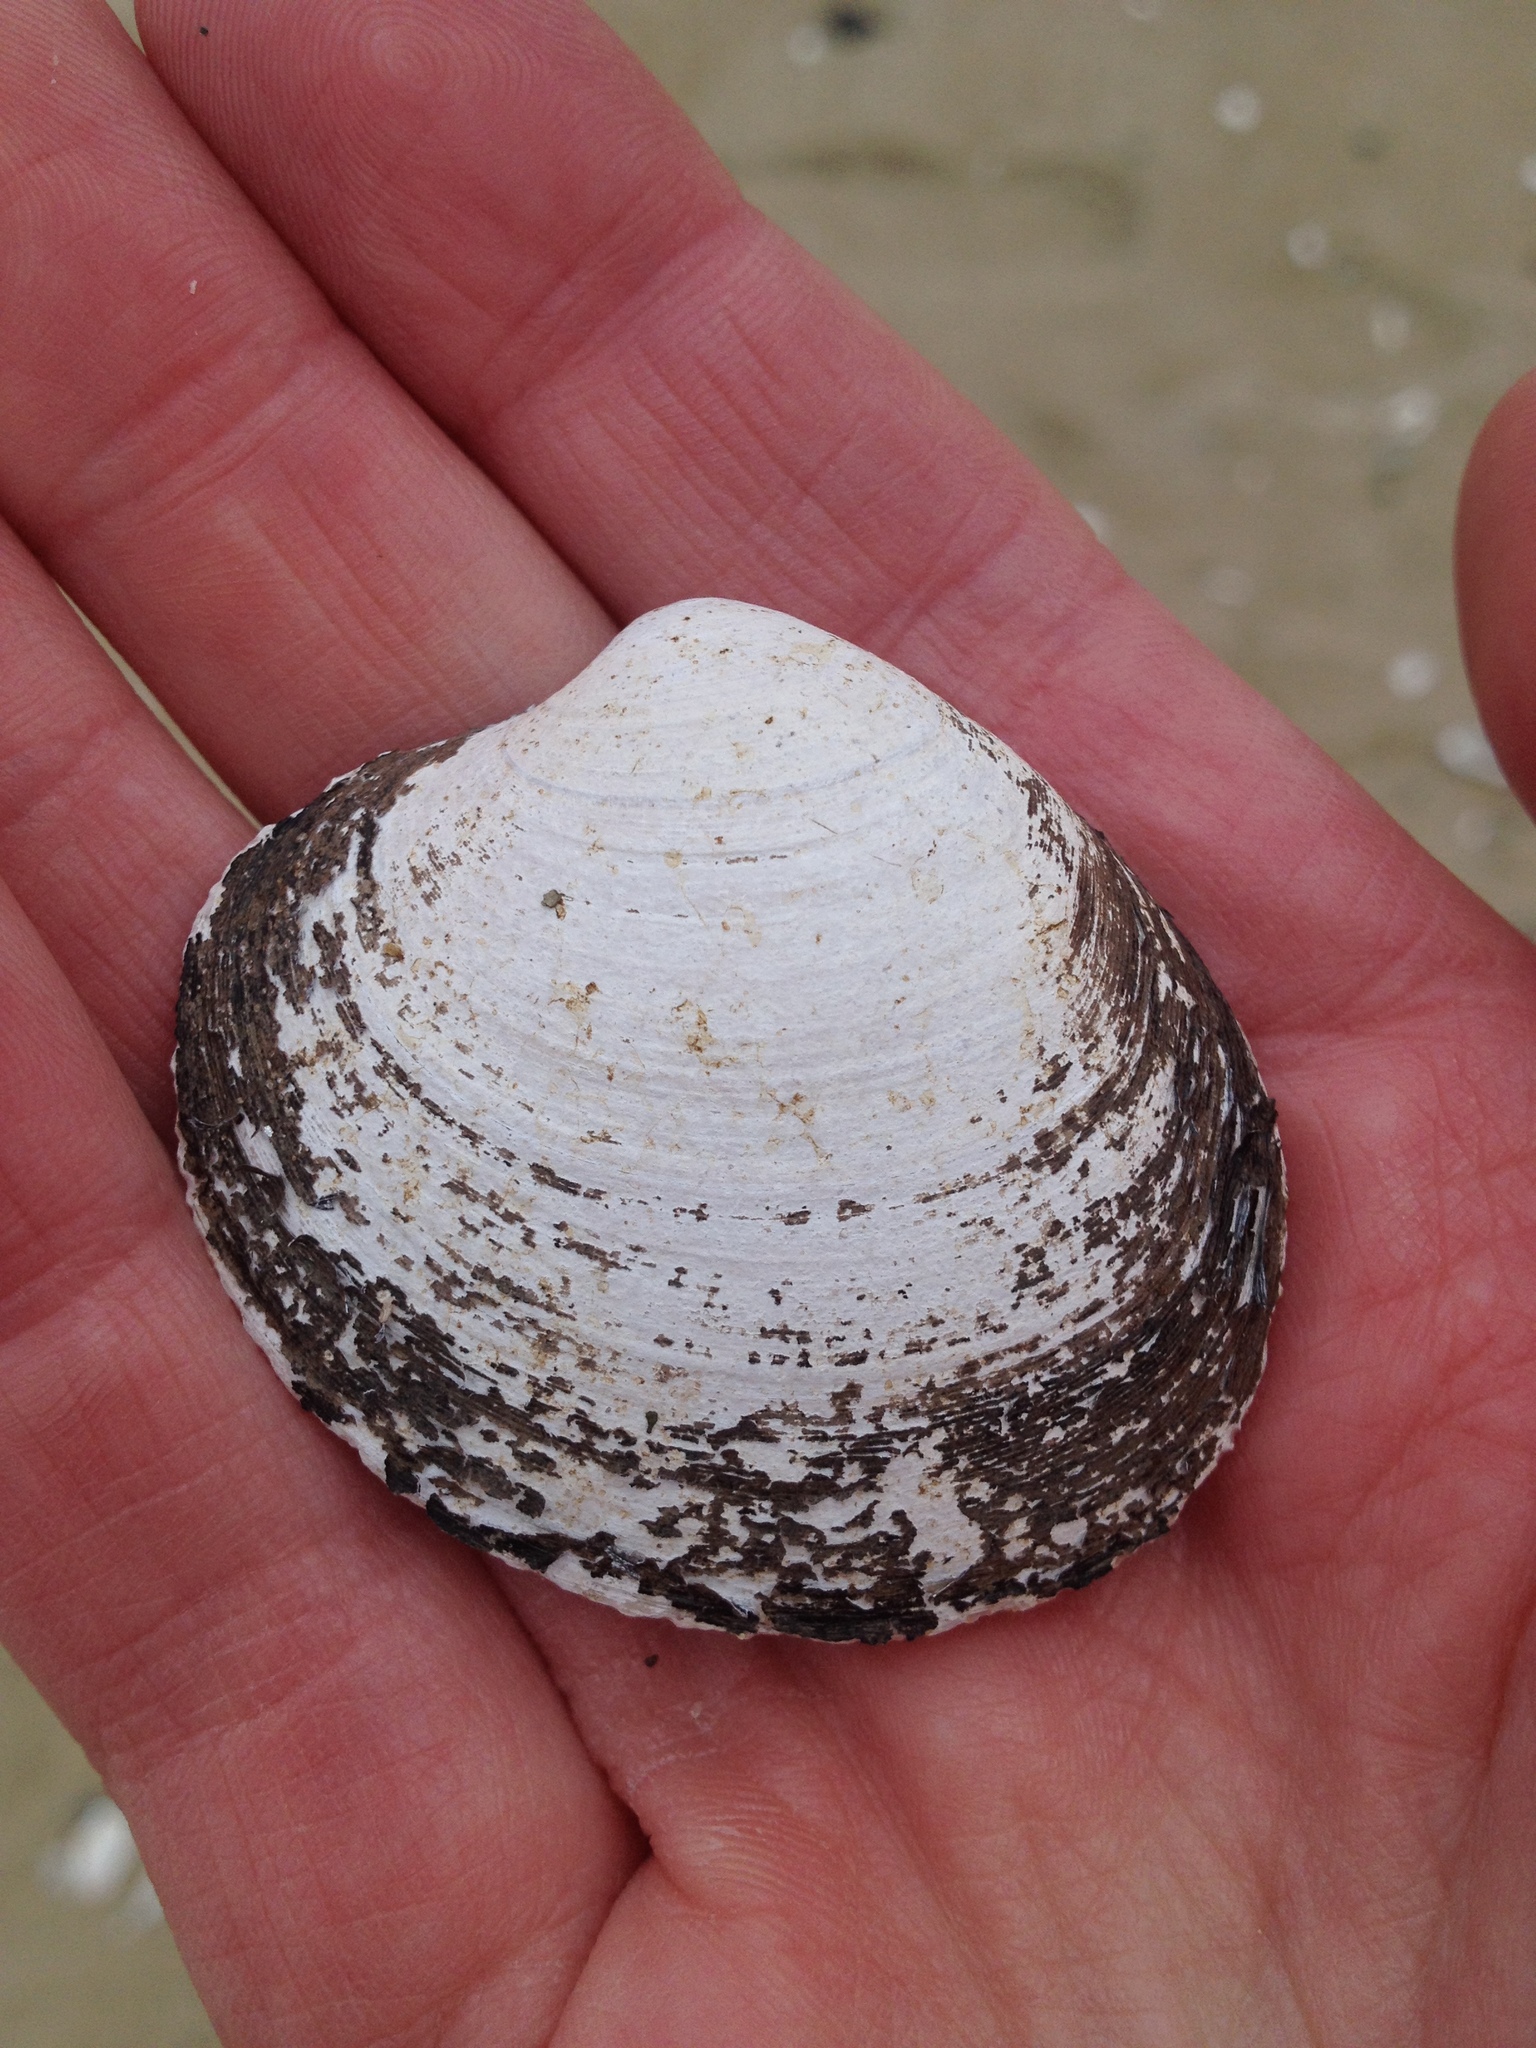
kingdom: Animalia
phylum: Mollusca
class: Bivalvia
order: Venerida
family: Arcticidae
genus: Arctica
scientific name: Arctica islandica
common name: Icelandic cyprine
